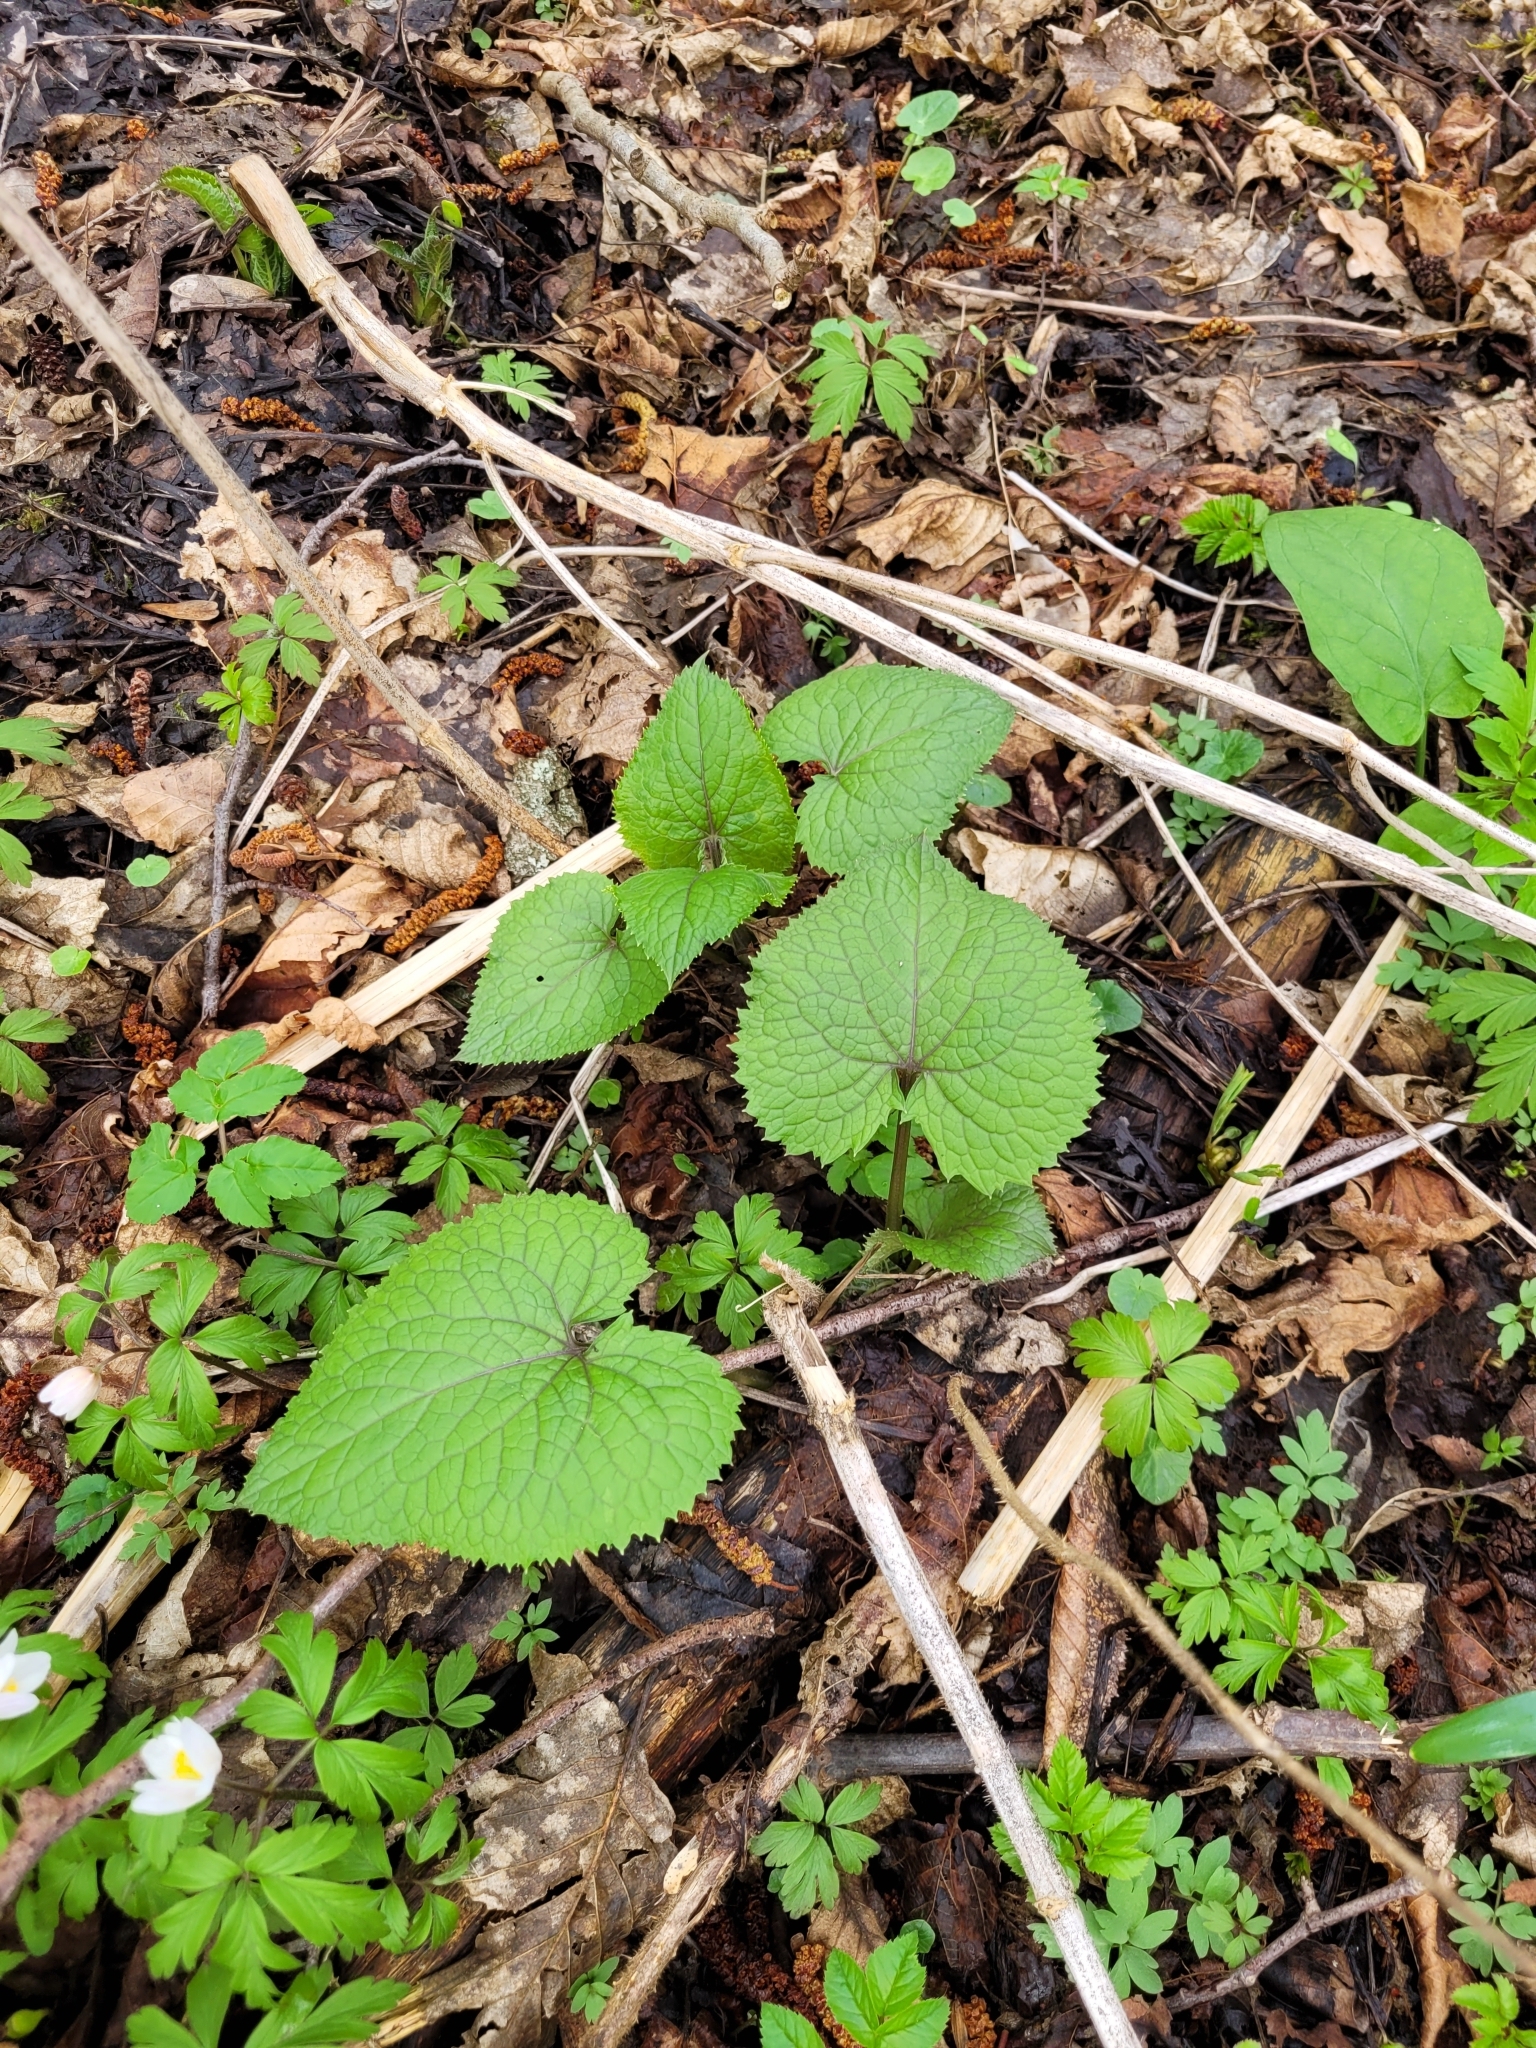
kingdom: Plantae
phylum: Tracheophyta
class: Magnoliopsida
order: Brassicales
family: Brassicaceae
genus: Lunaria
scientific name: Lunaria rediviva
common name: Perennial honesty
